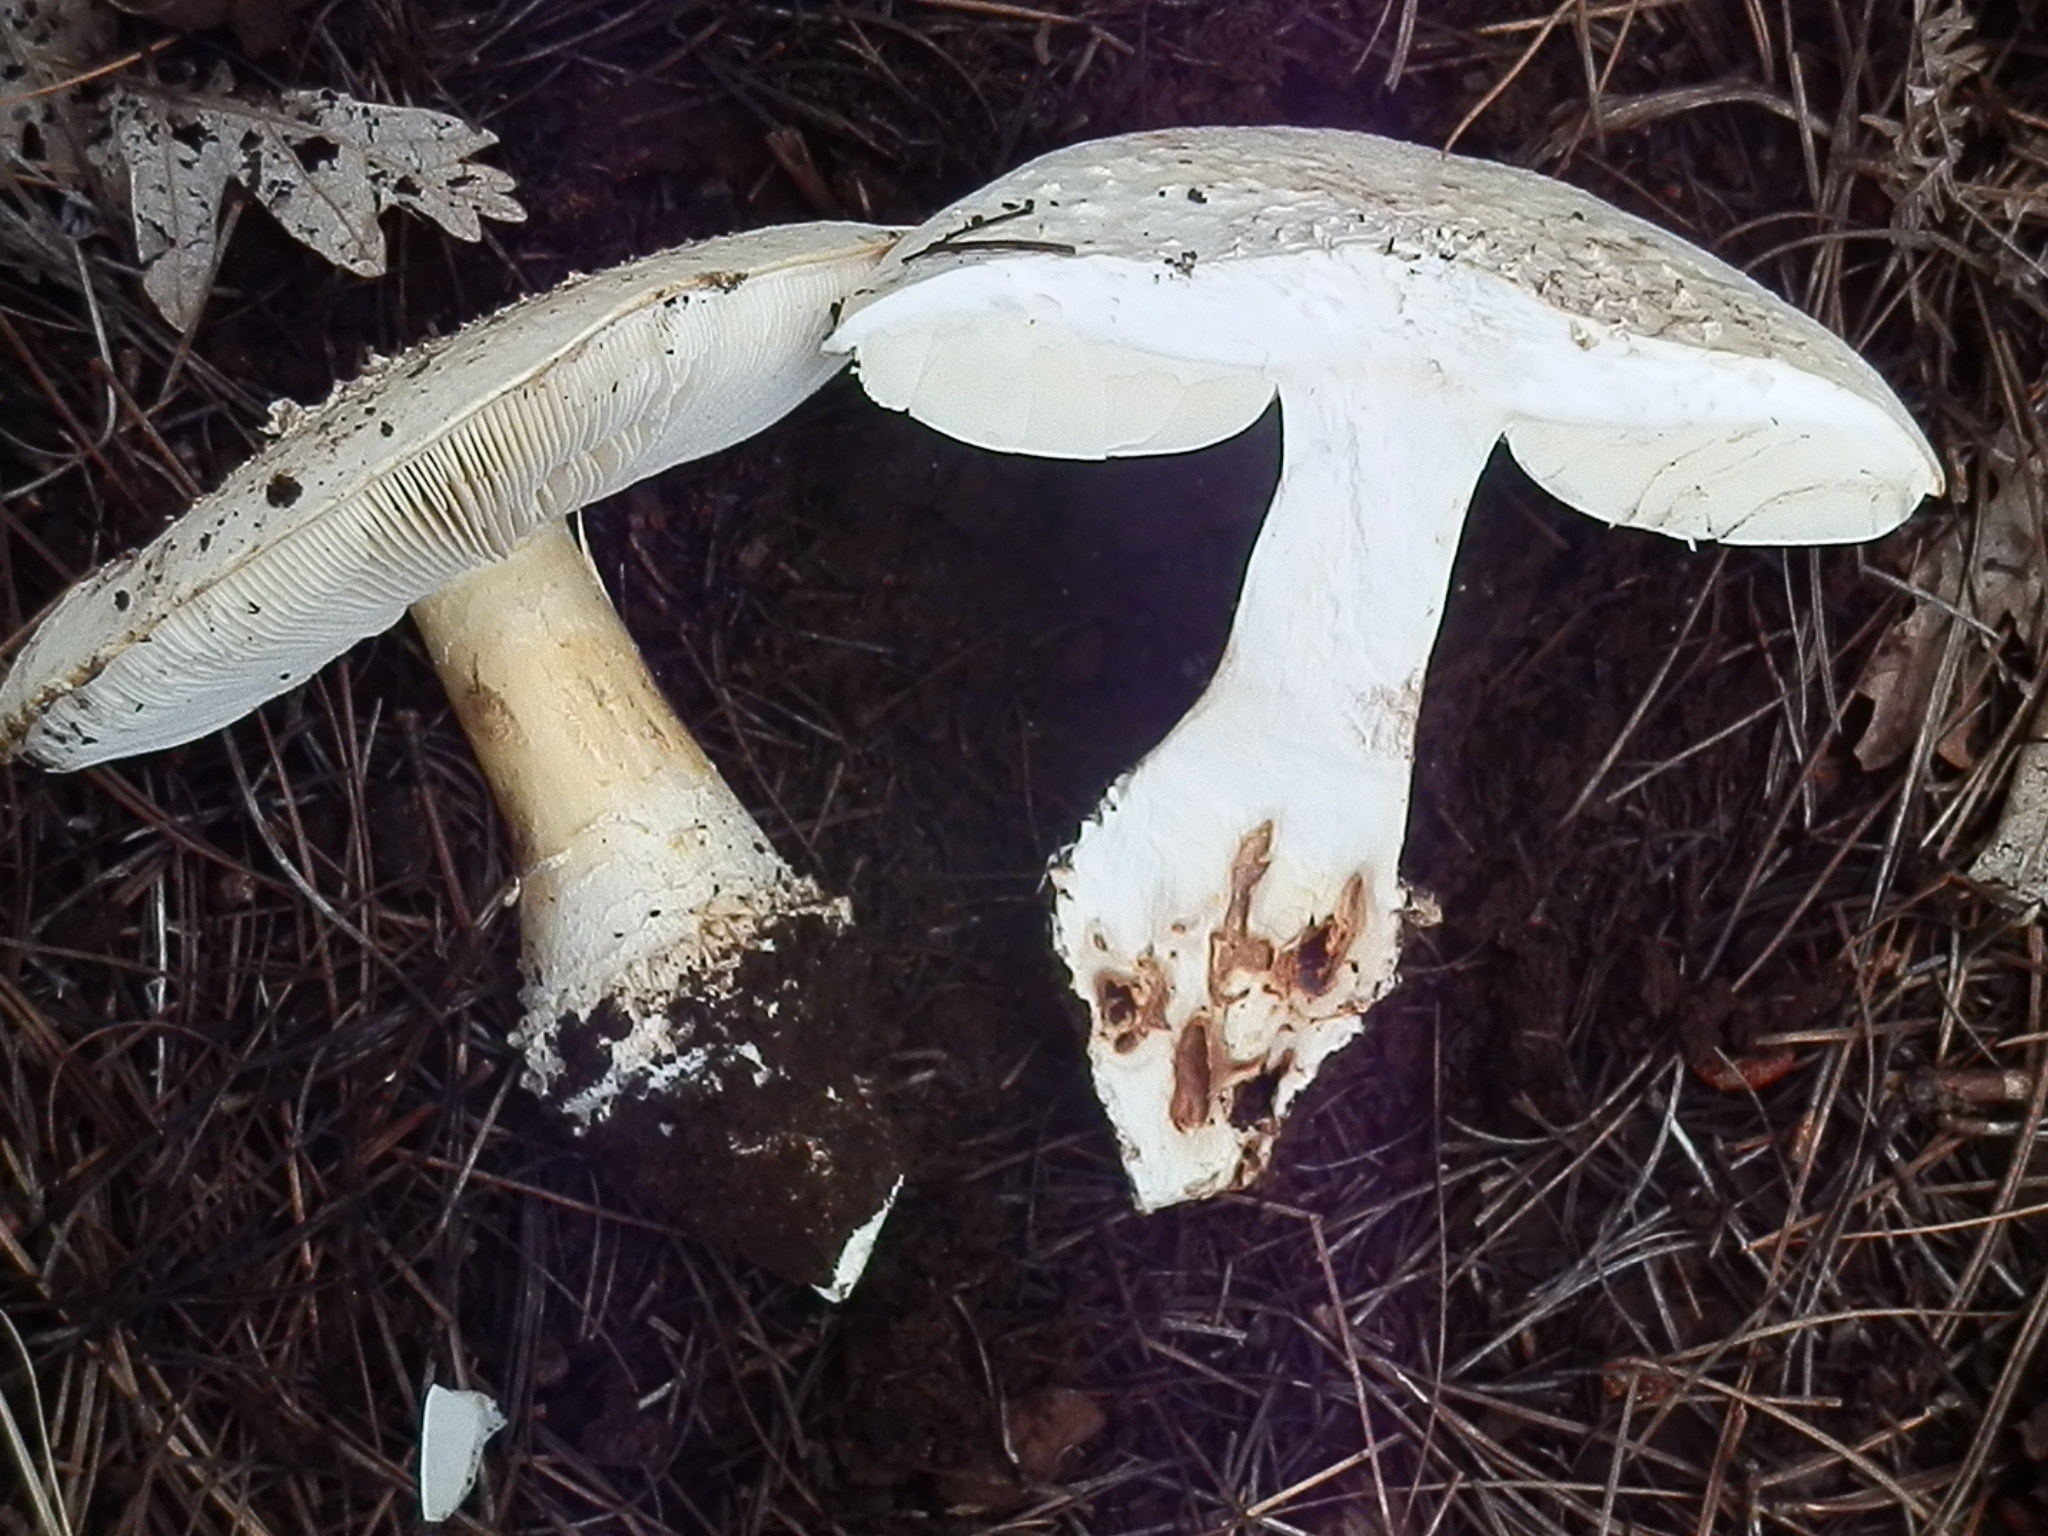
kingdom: Fungi
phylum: Basidiomycota
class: Agaricomycetes
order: Agaricales
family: Amanitaceae
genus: Amanita
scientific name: Amanita magniverrucata
